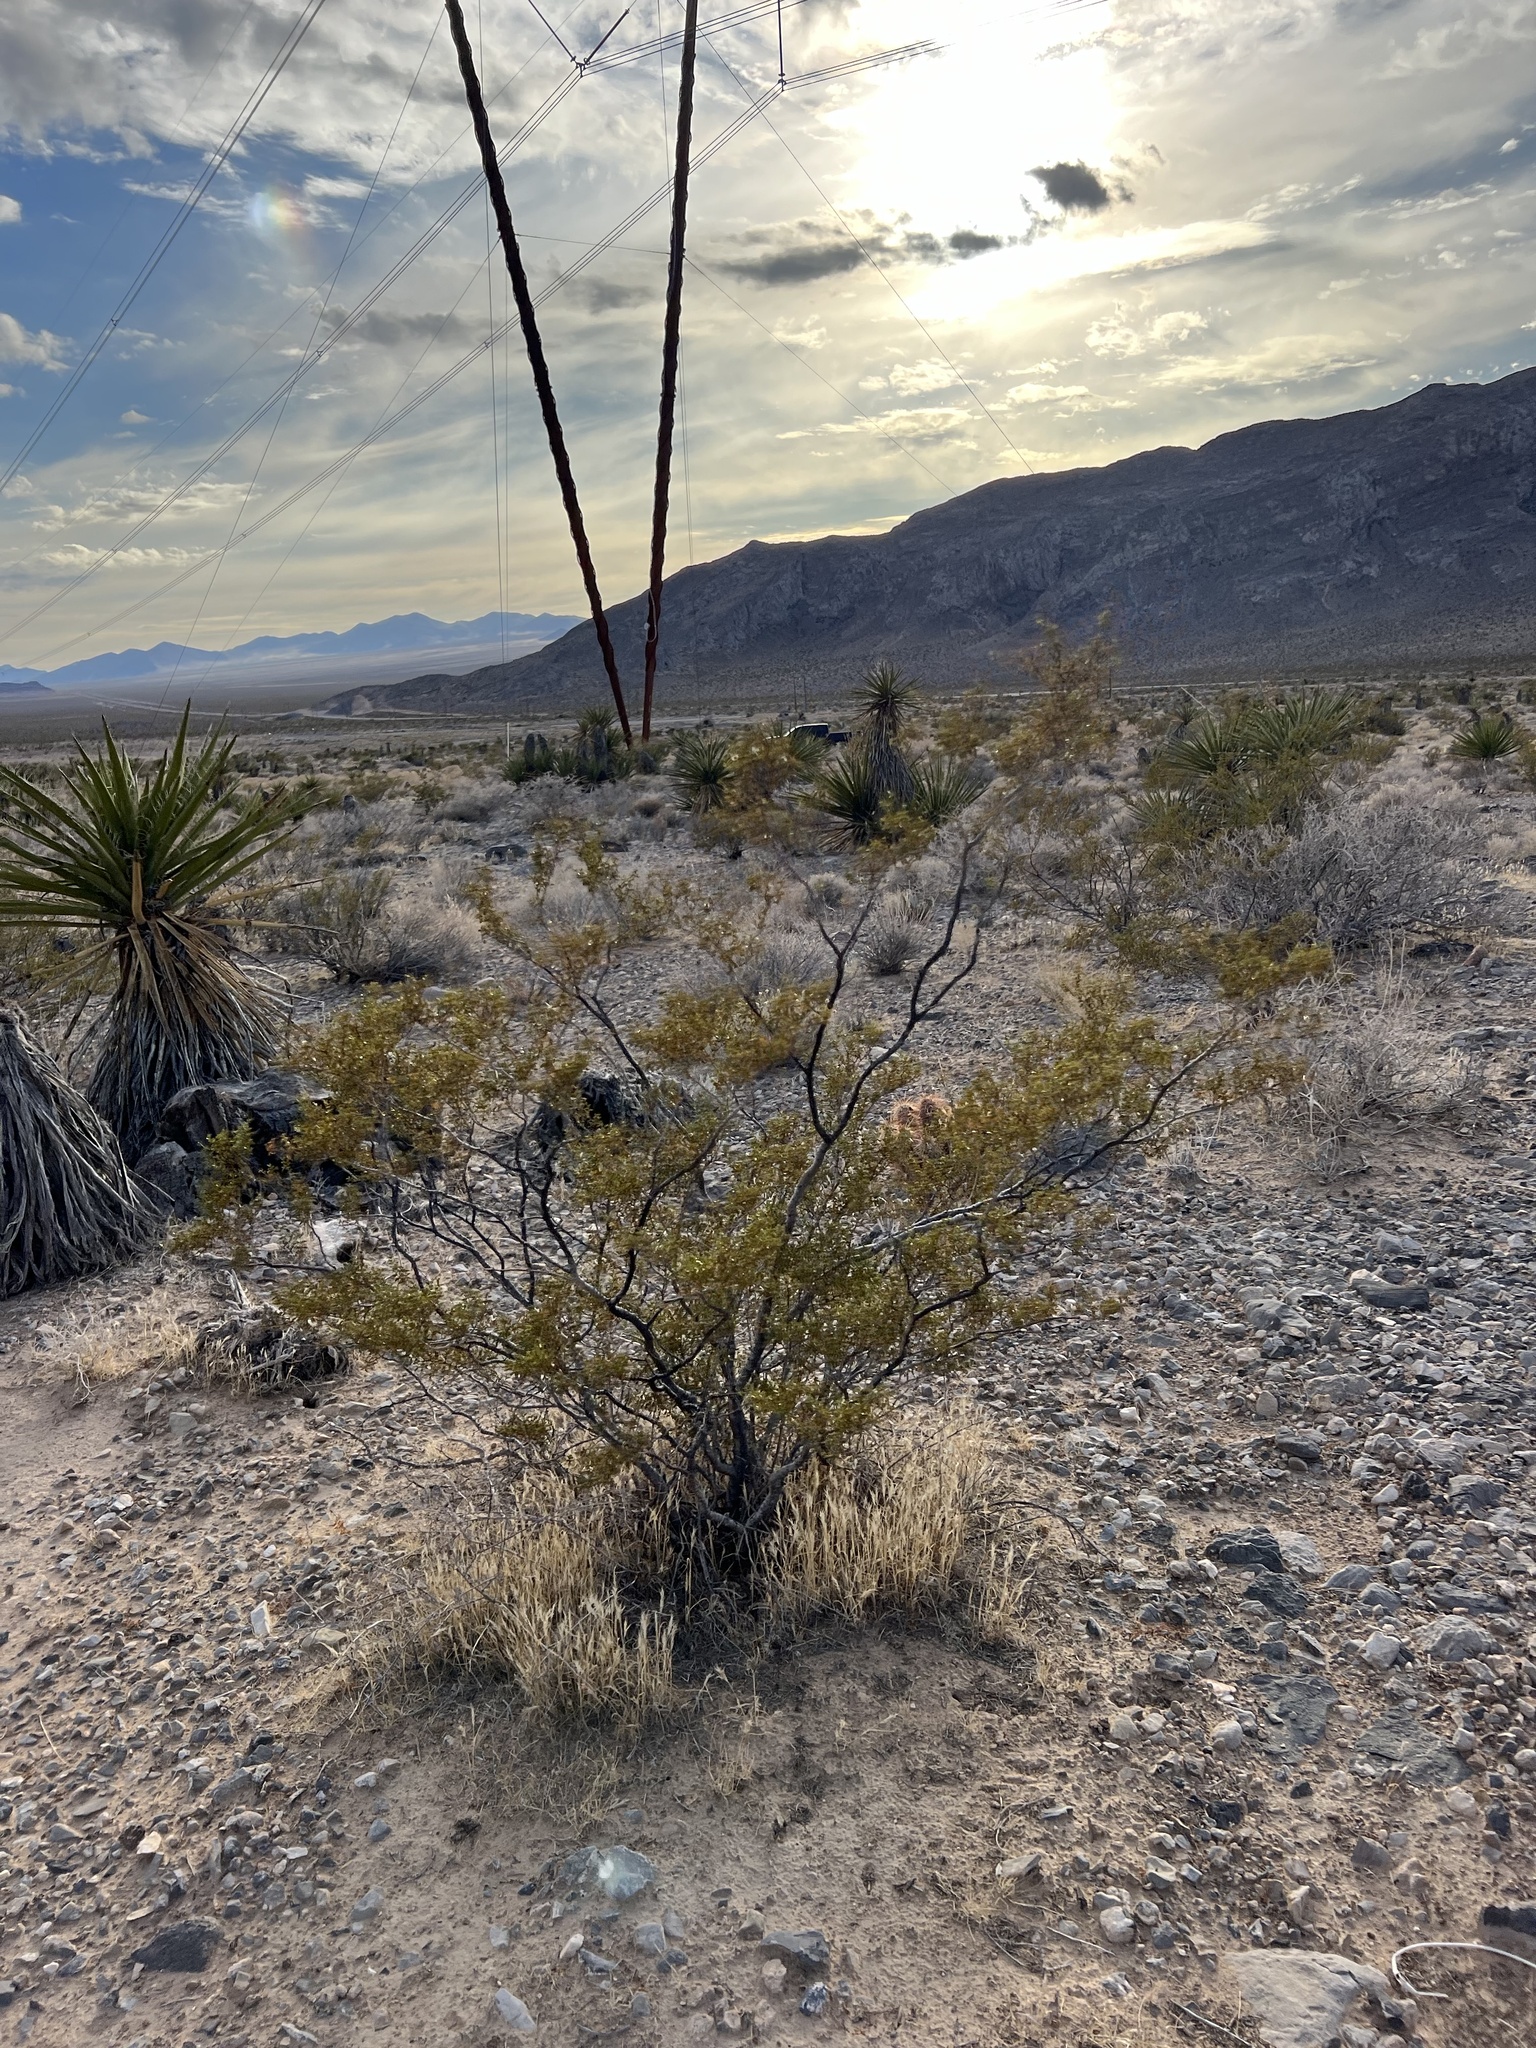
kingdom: Plantae
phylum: Tracheophyta
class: Magnoliopsida
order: Zygophyllales
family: Zygophyllaceae
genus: Larrea
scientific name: Larrea tridentata
